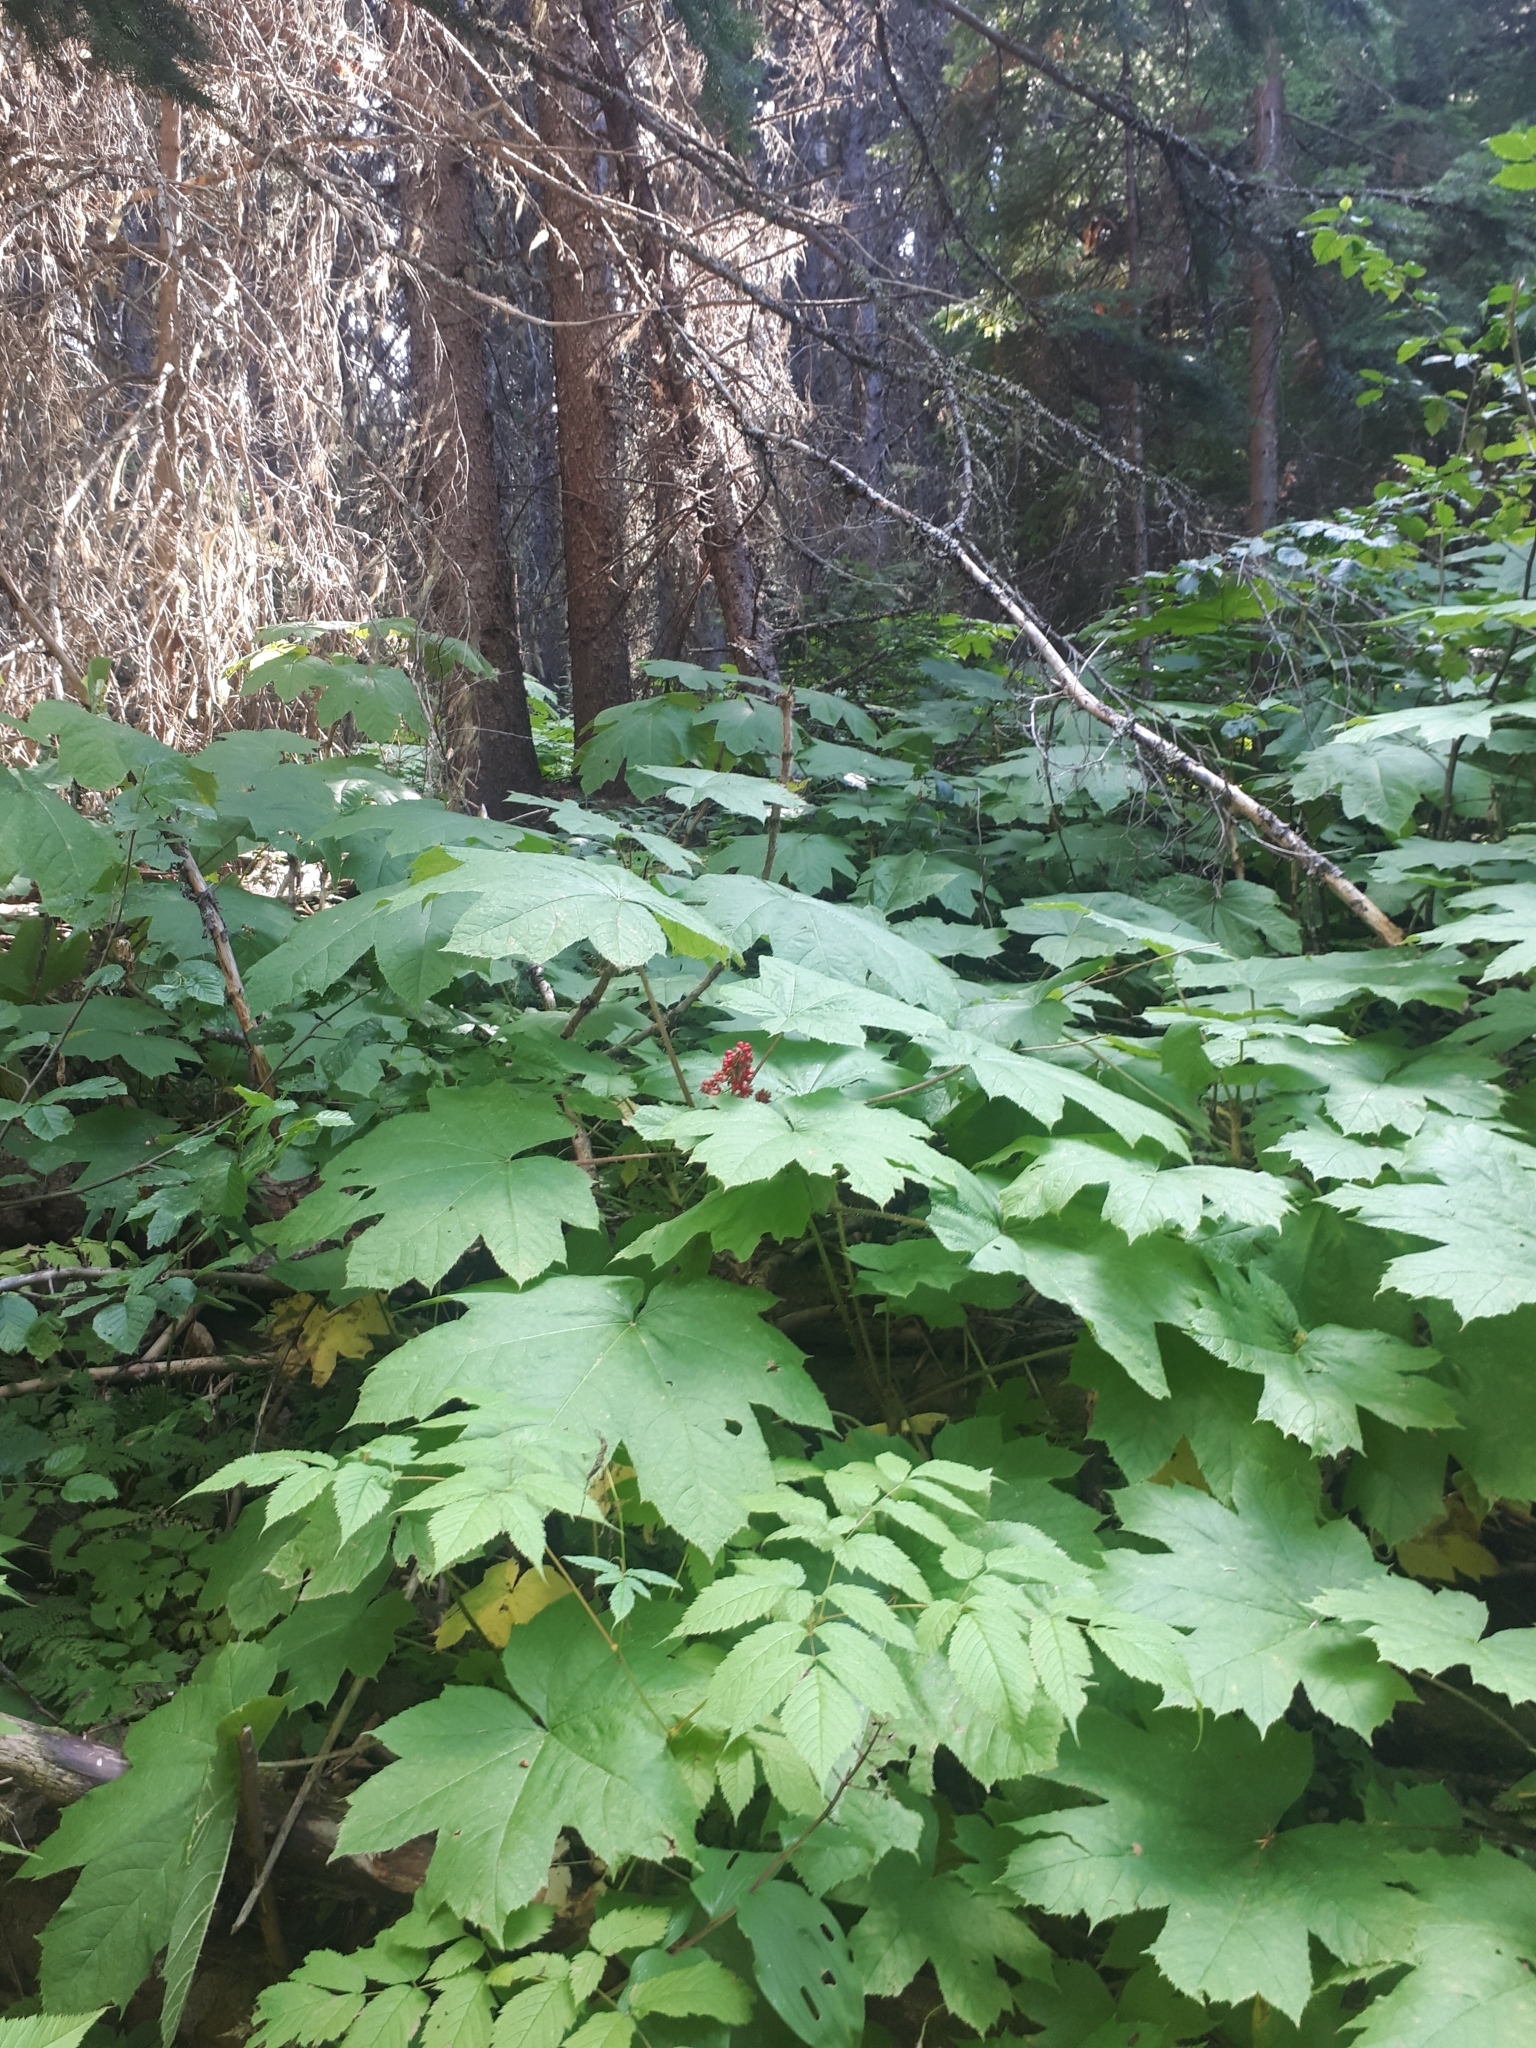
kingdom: Plantae
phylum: Tracheophyta
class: Magnoliopsida
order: Apiales
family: Araliaceae
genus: Oplopanax
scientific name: Oplopanax horridus
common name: Devil's walking-stick
